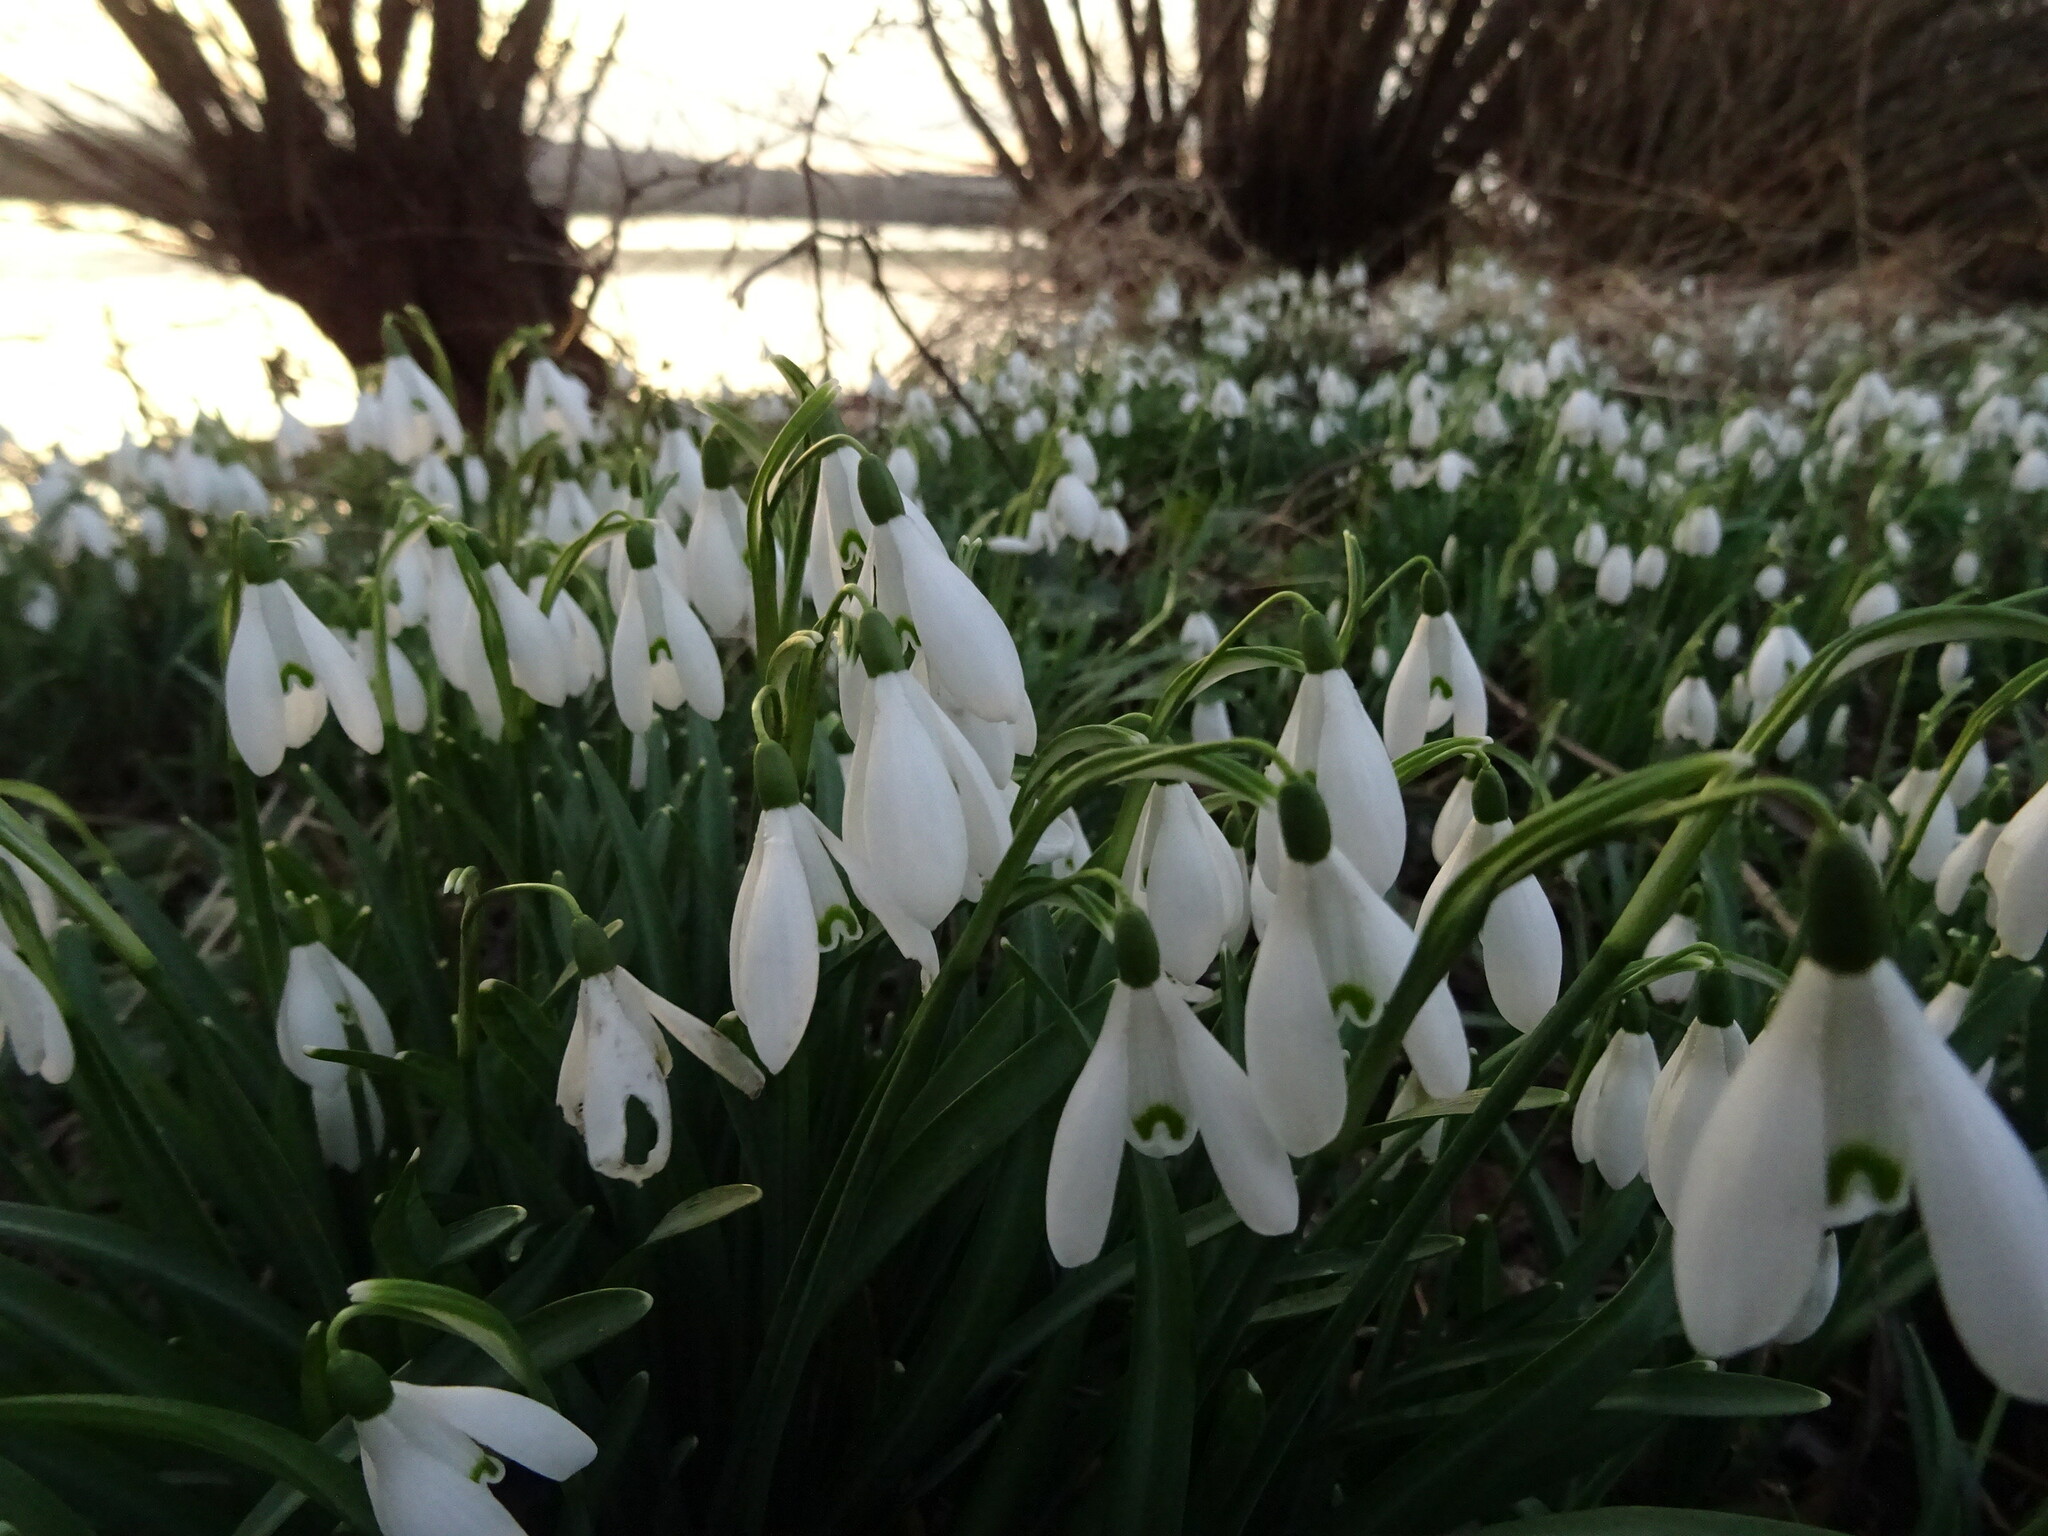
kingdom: Plantae
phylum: Tracheophyta
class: Liliopsida
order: Asparagales
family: Amaryllidaceae
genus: Galanthus
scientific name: Galanthus nivalis
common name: Snowdrop
